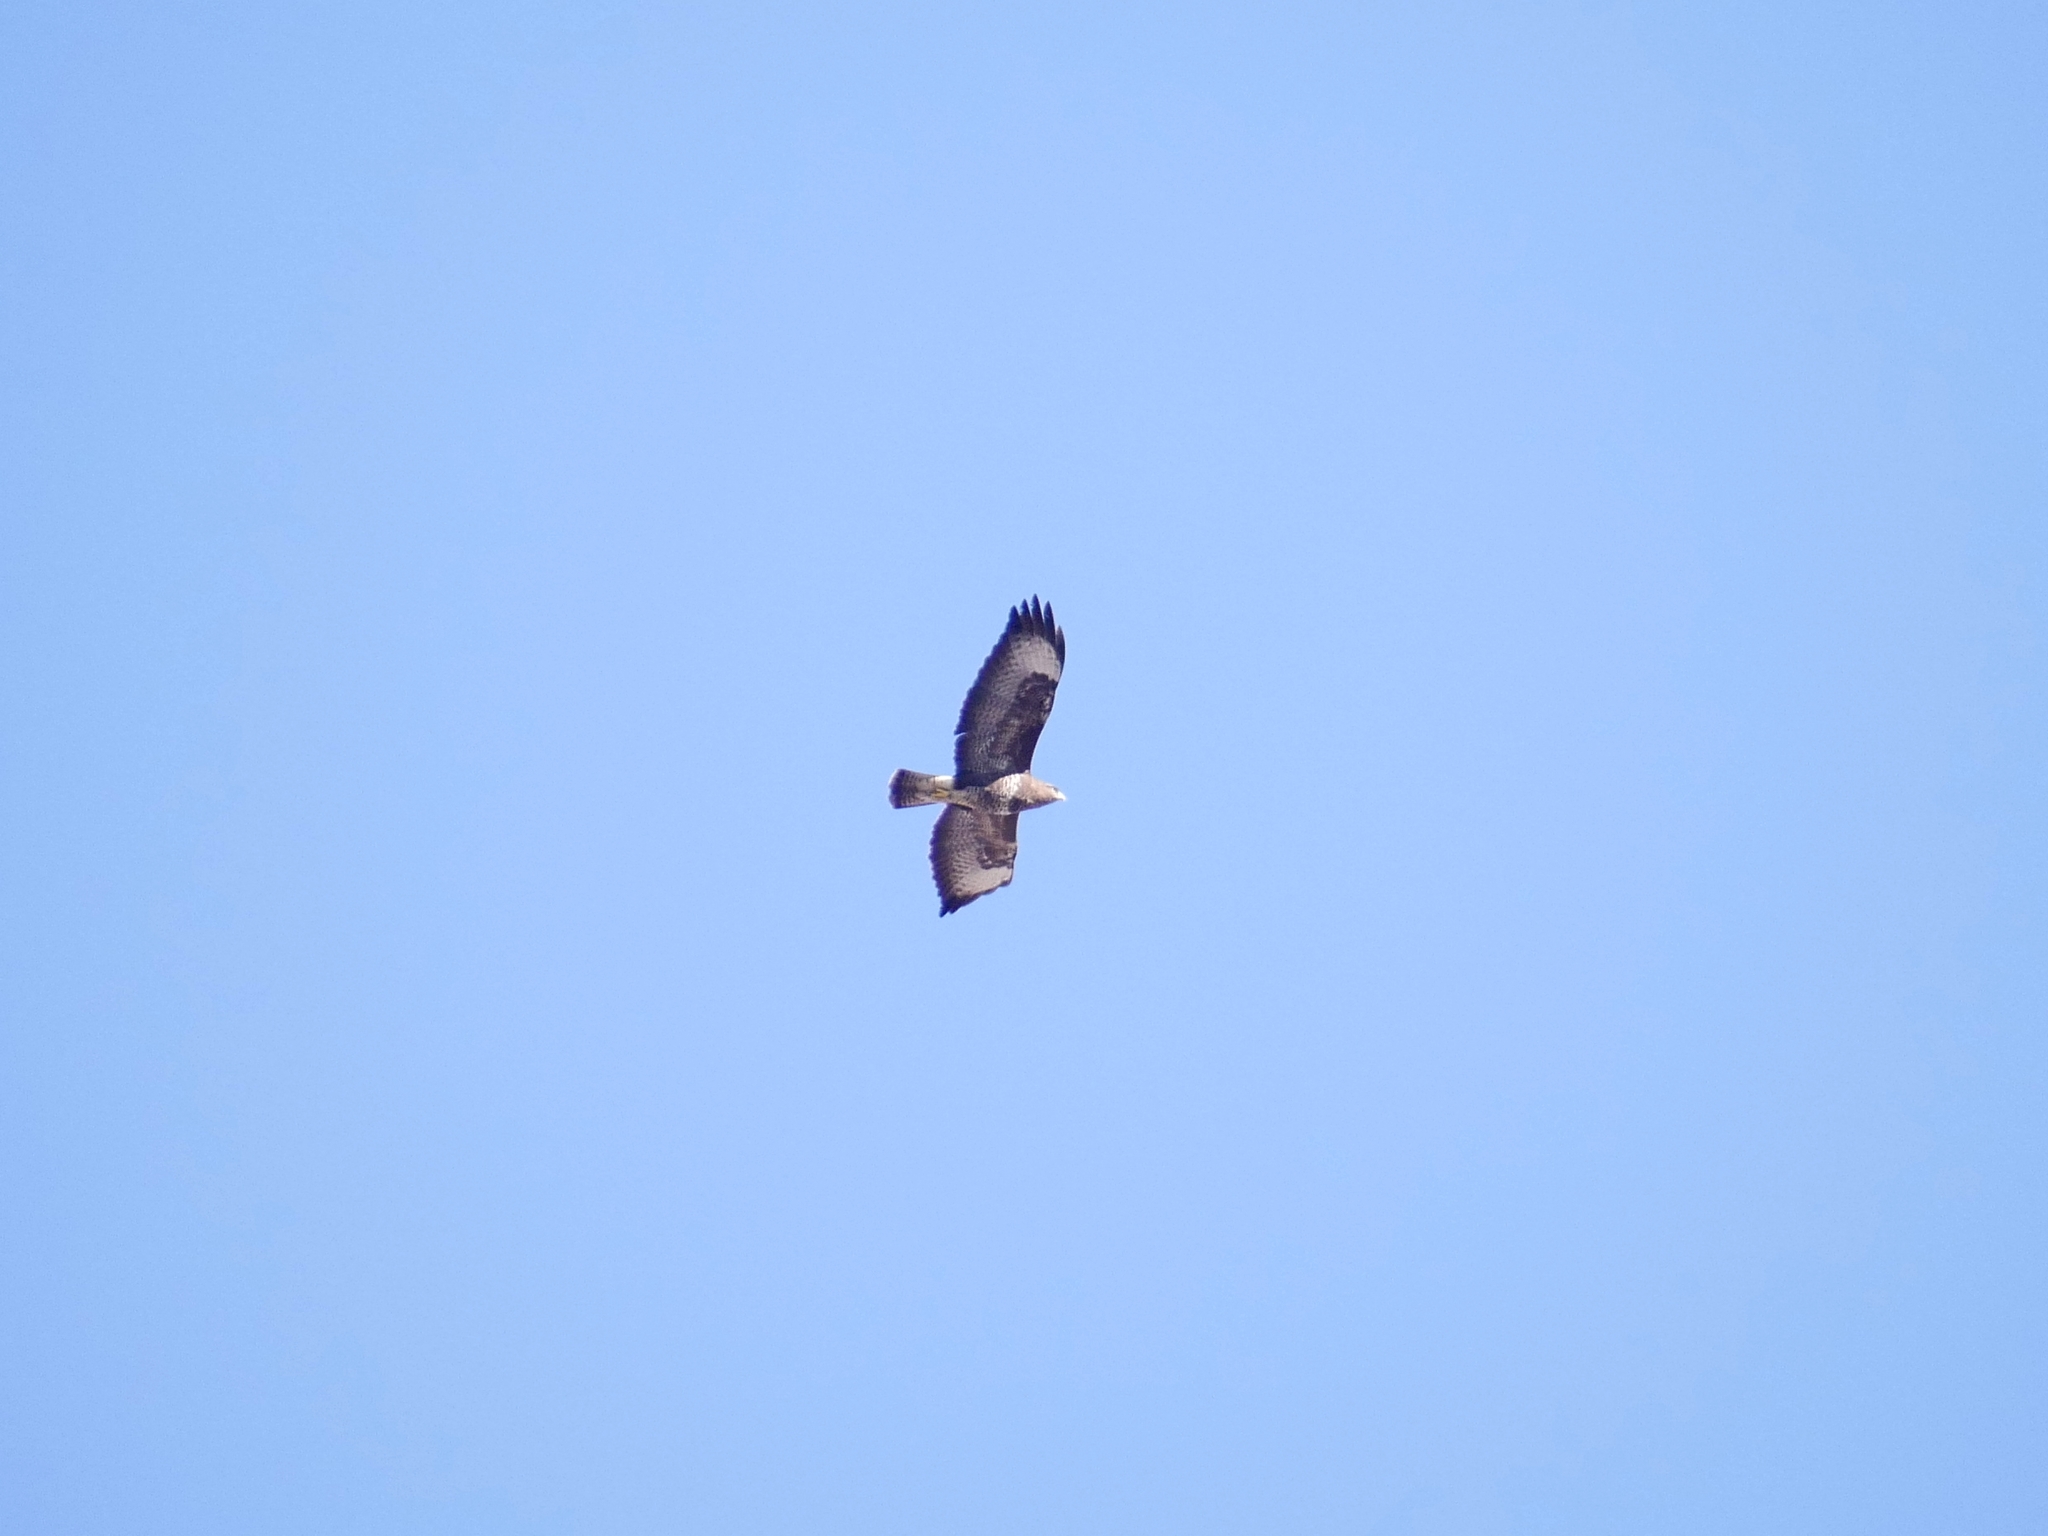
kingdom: Animalia
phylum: Chordata
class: Aves
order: Accipitriformes
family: Accipitridae
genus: Buteo
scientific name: Buteo buteo
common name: Common buzzard
